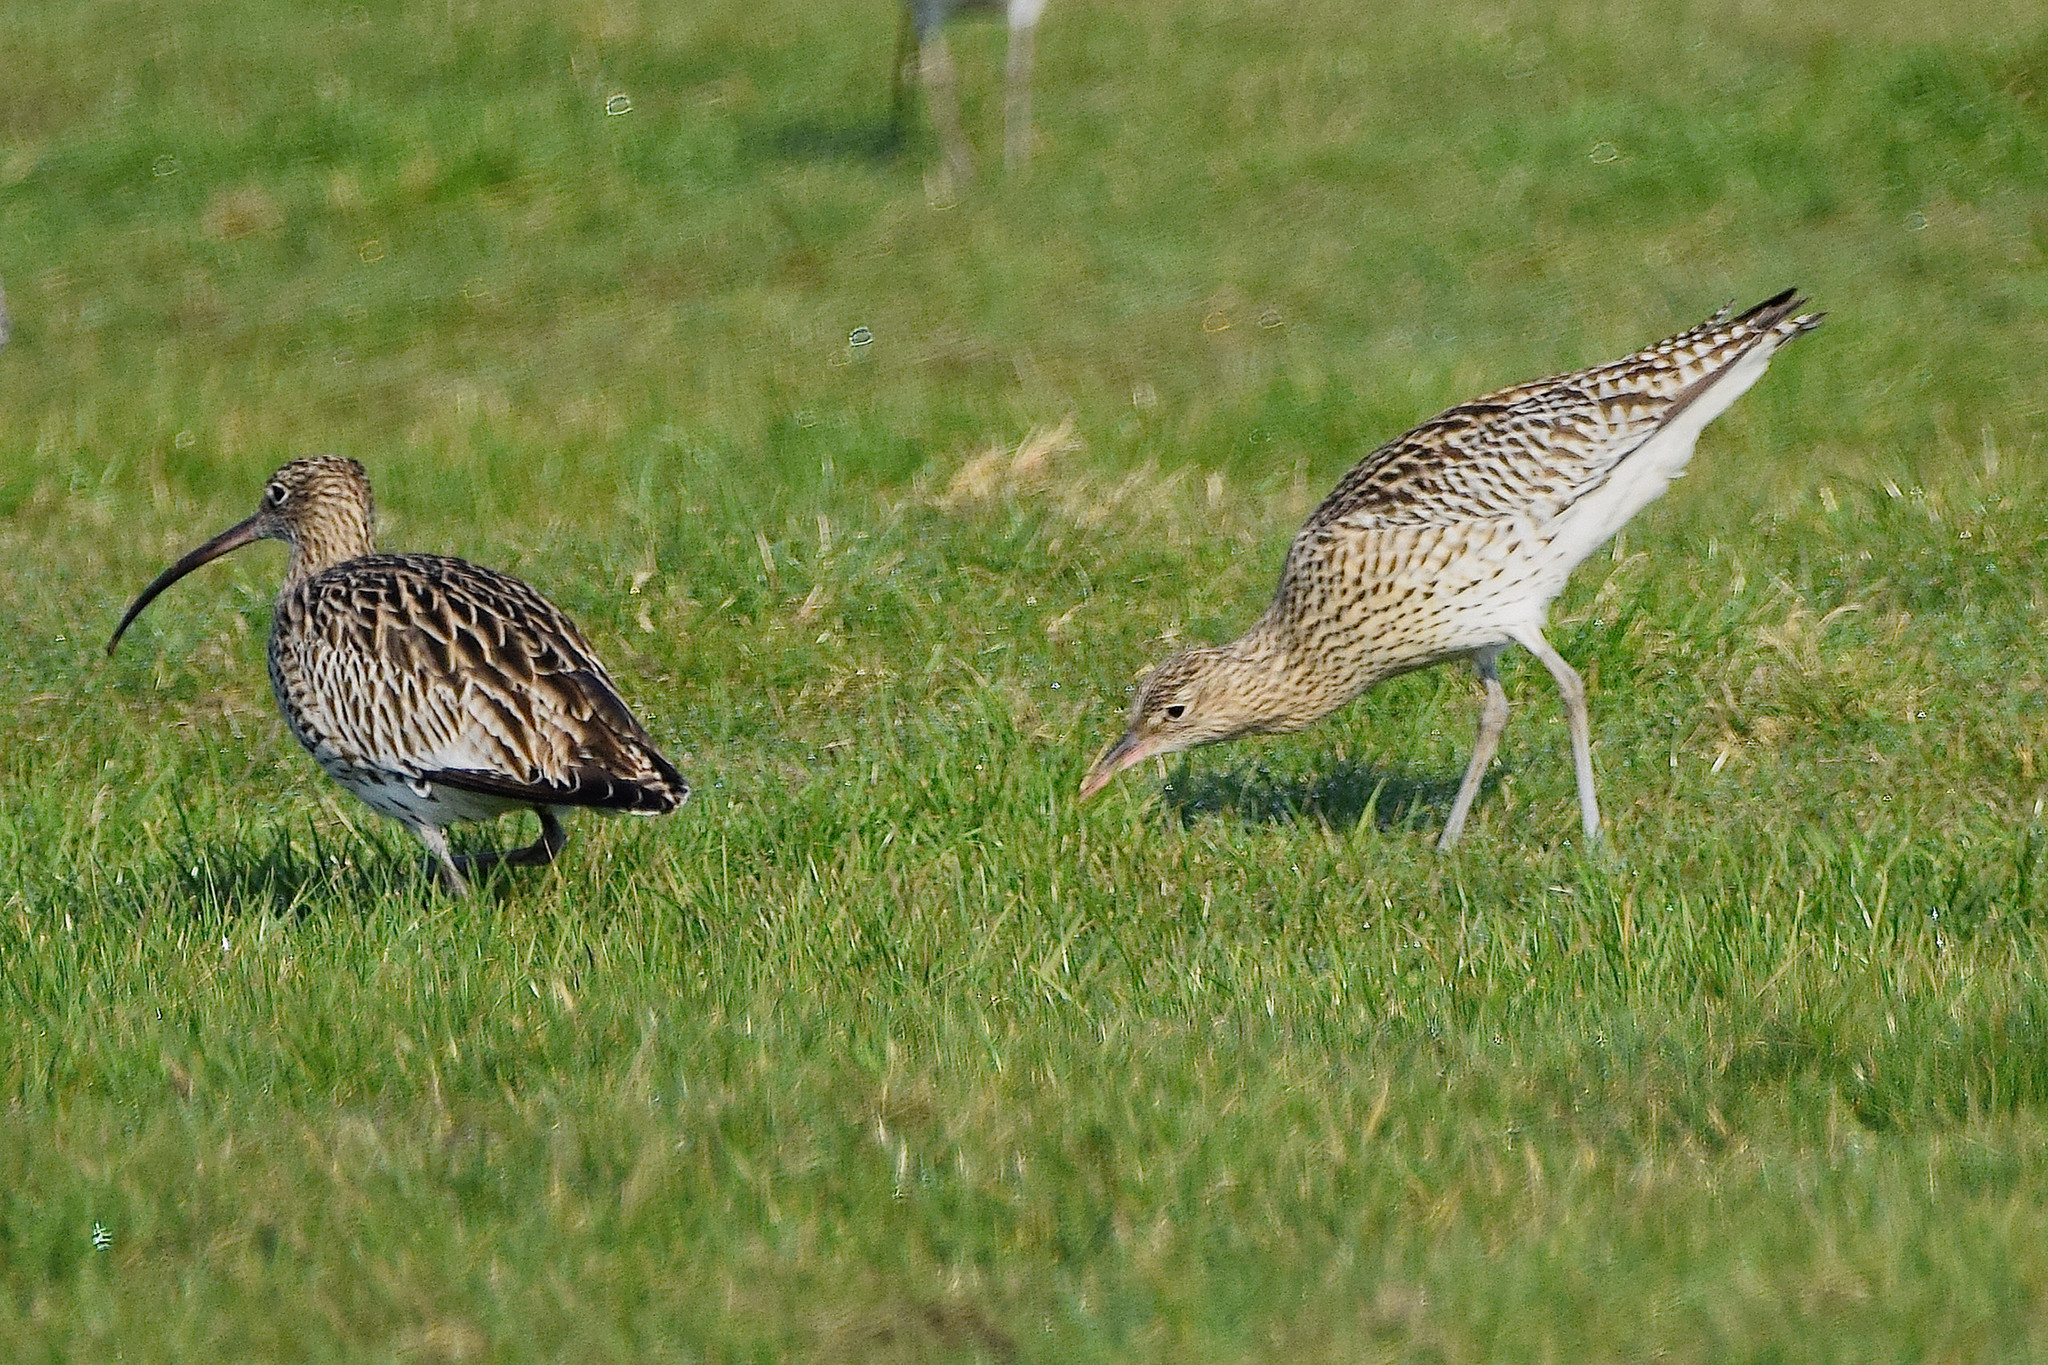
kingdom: Animalia
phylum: Chordata
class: Aves
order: Charadriiformes
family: Scolopacidae
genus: Numenius
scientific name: Numenius arquata
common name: Eurasian curlew
